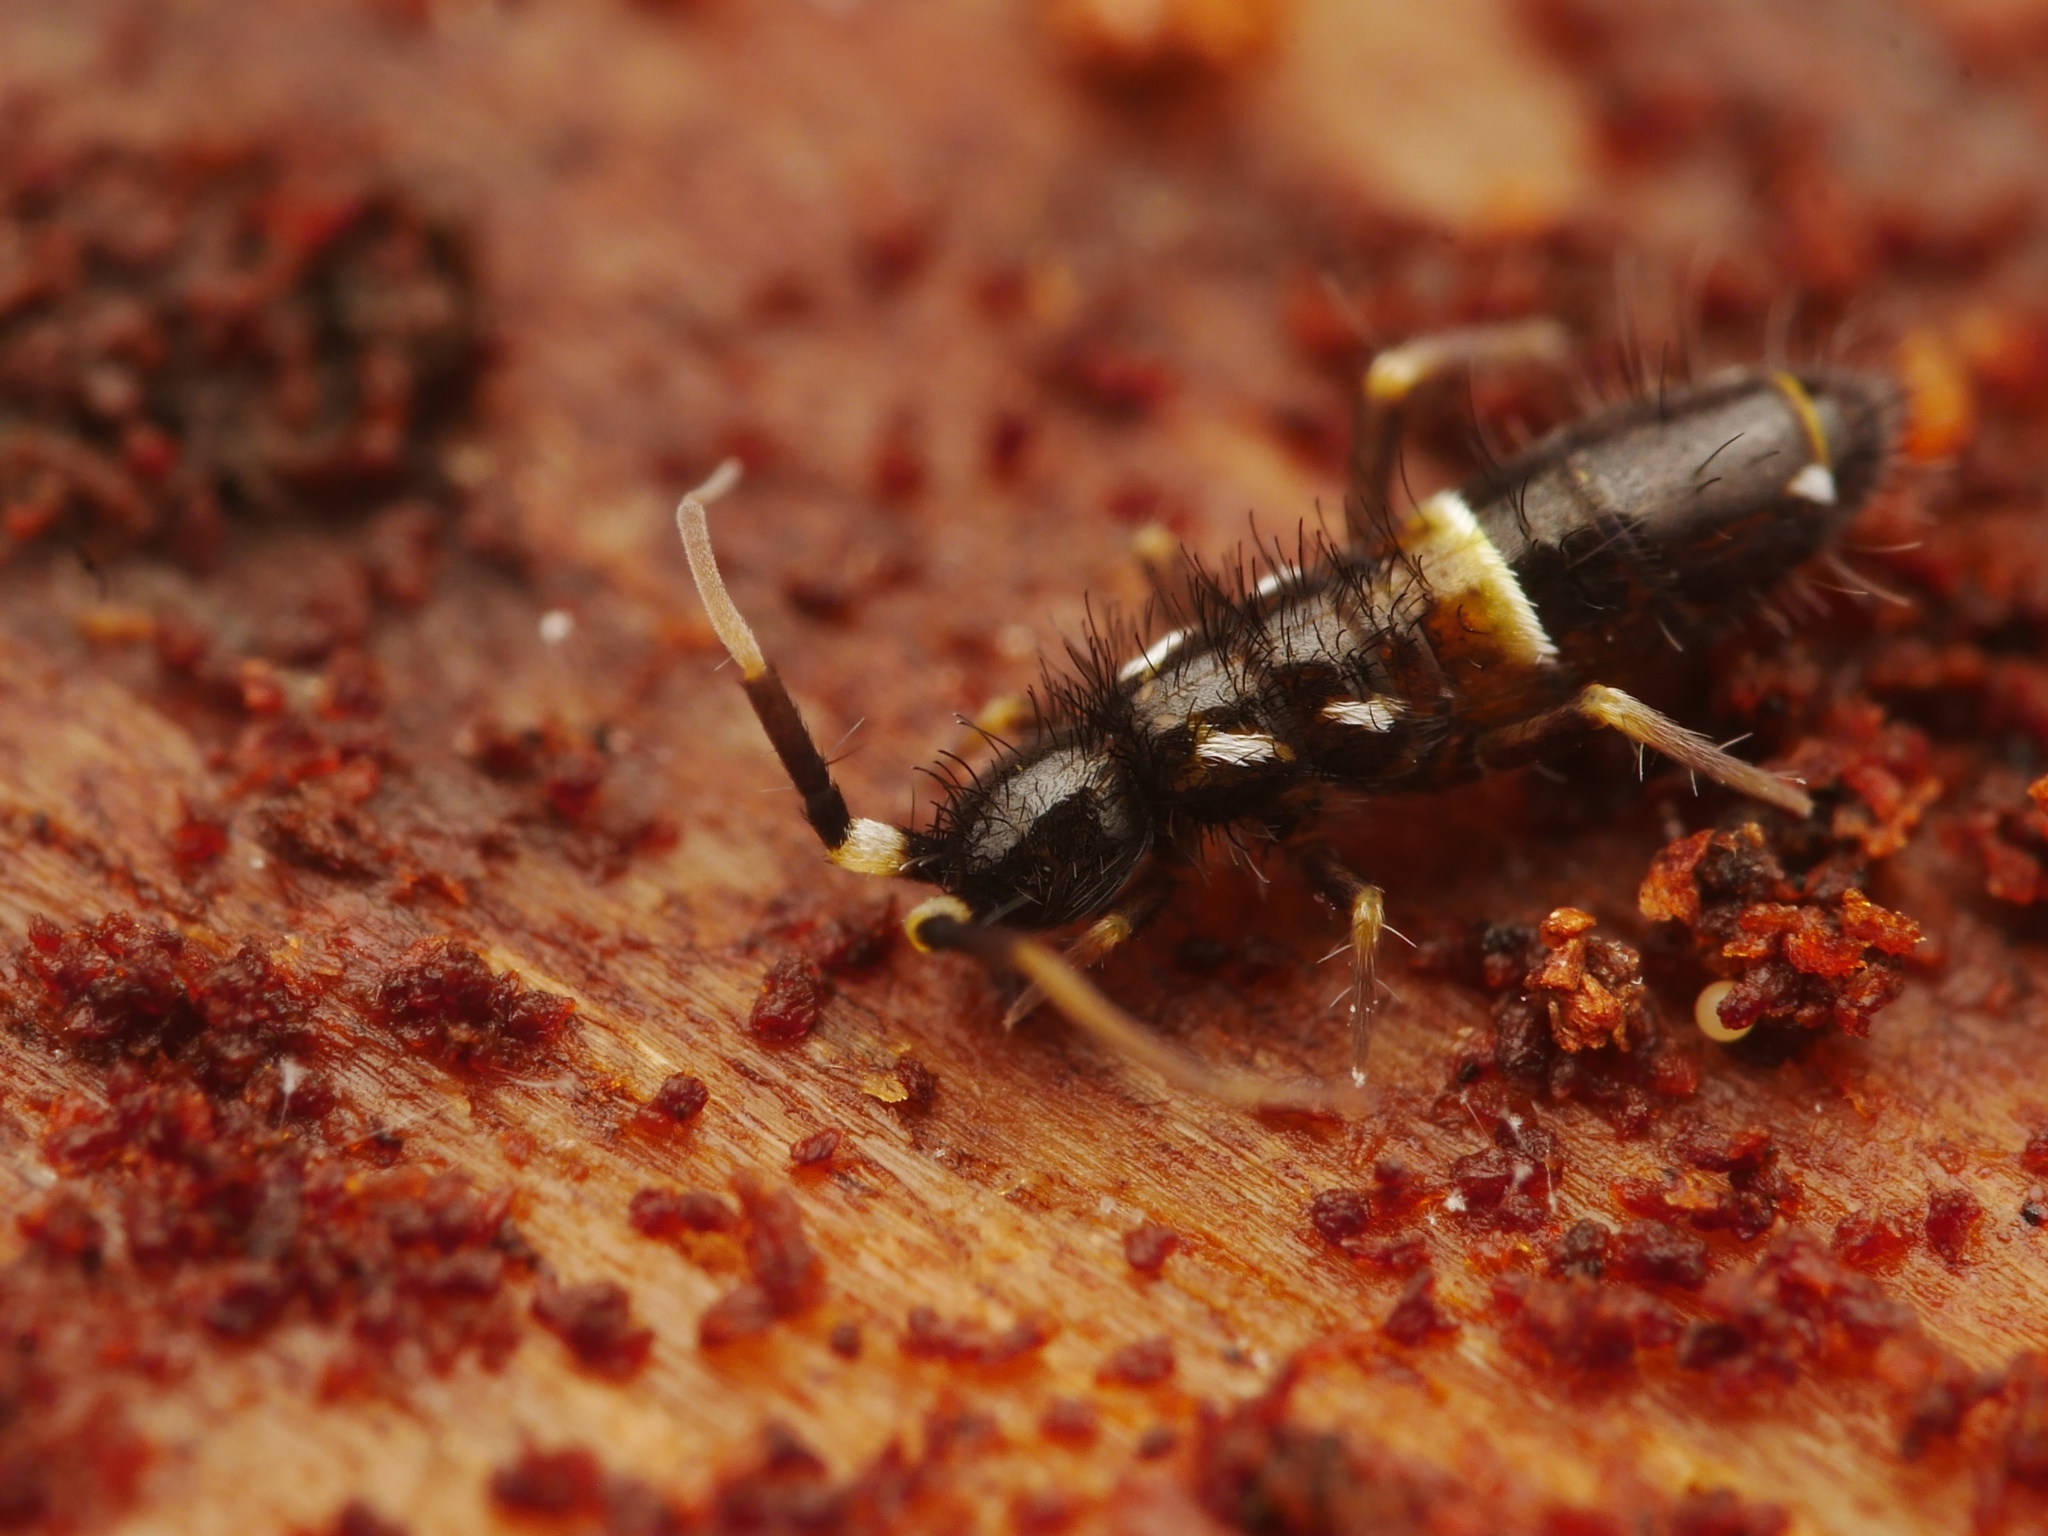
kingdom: Animalia
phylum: Arthropoda
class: Collembola
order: Entomobryomorpha
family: Orchesellidae
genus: Orchesella
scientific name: Orchesella cincta
